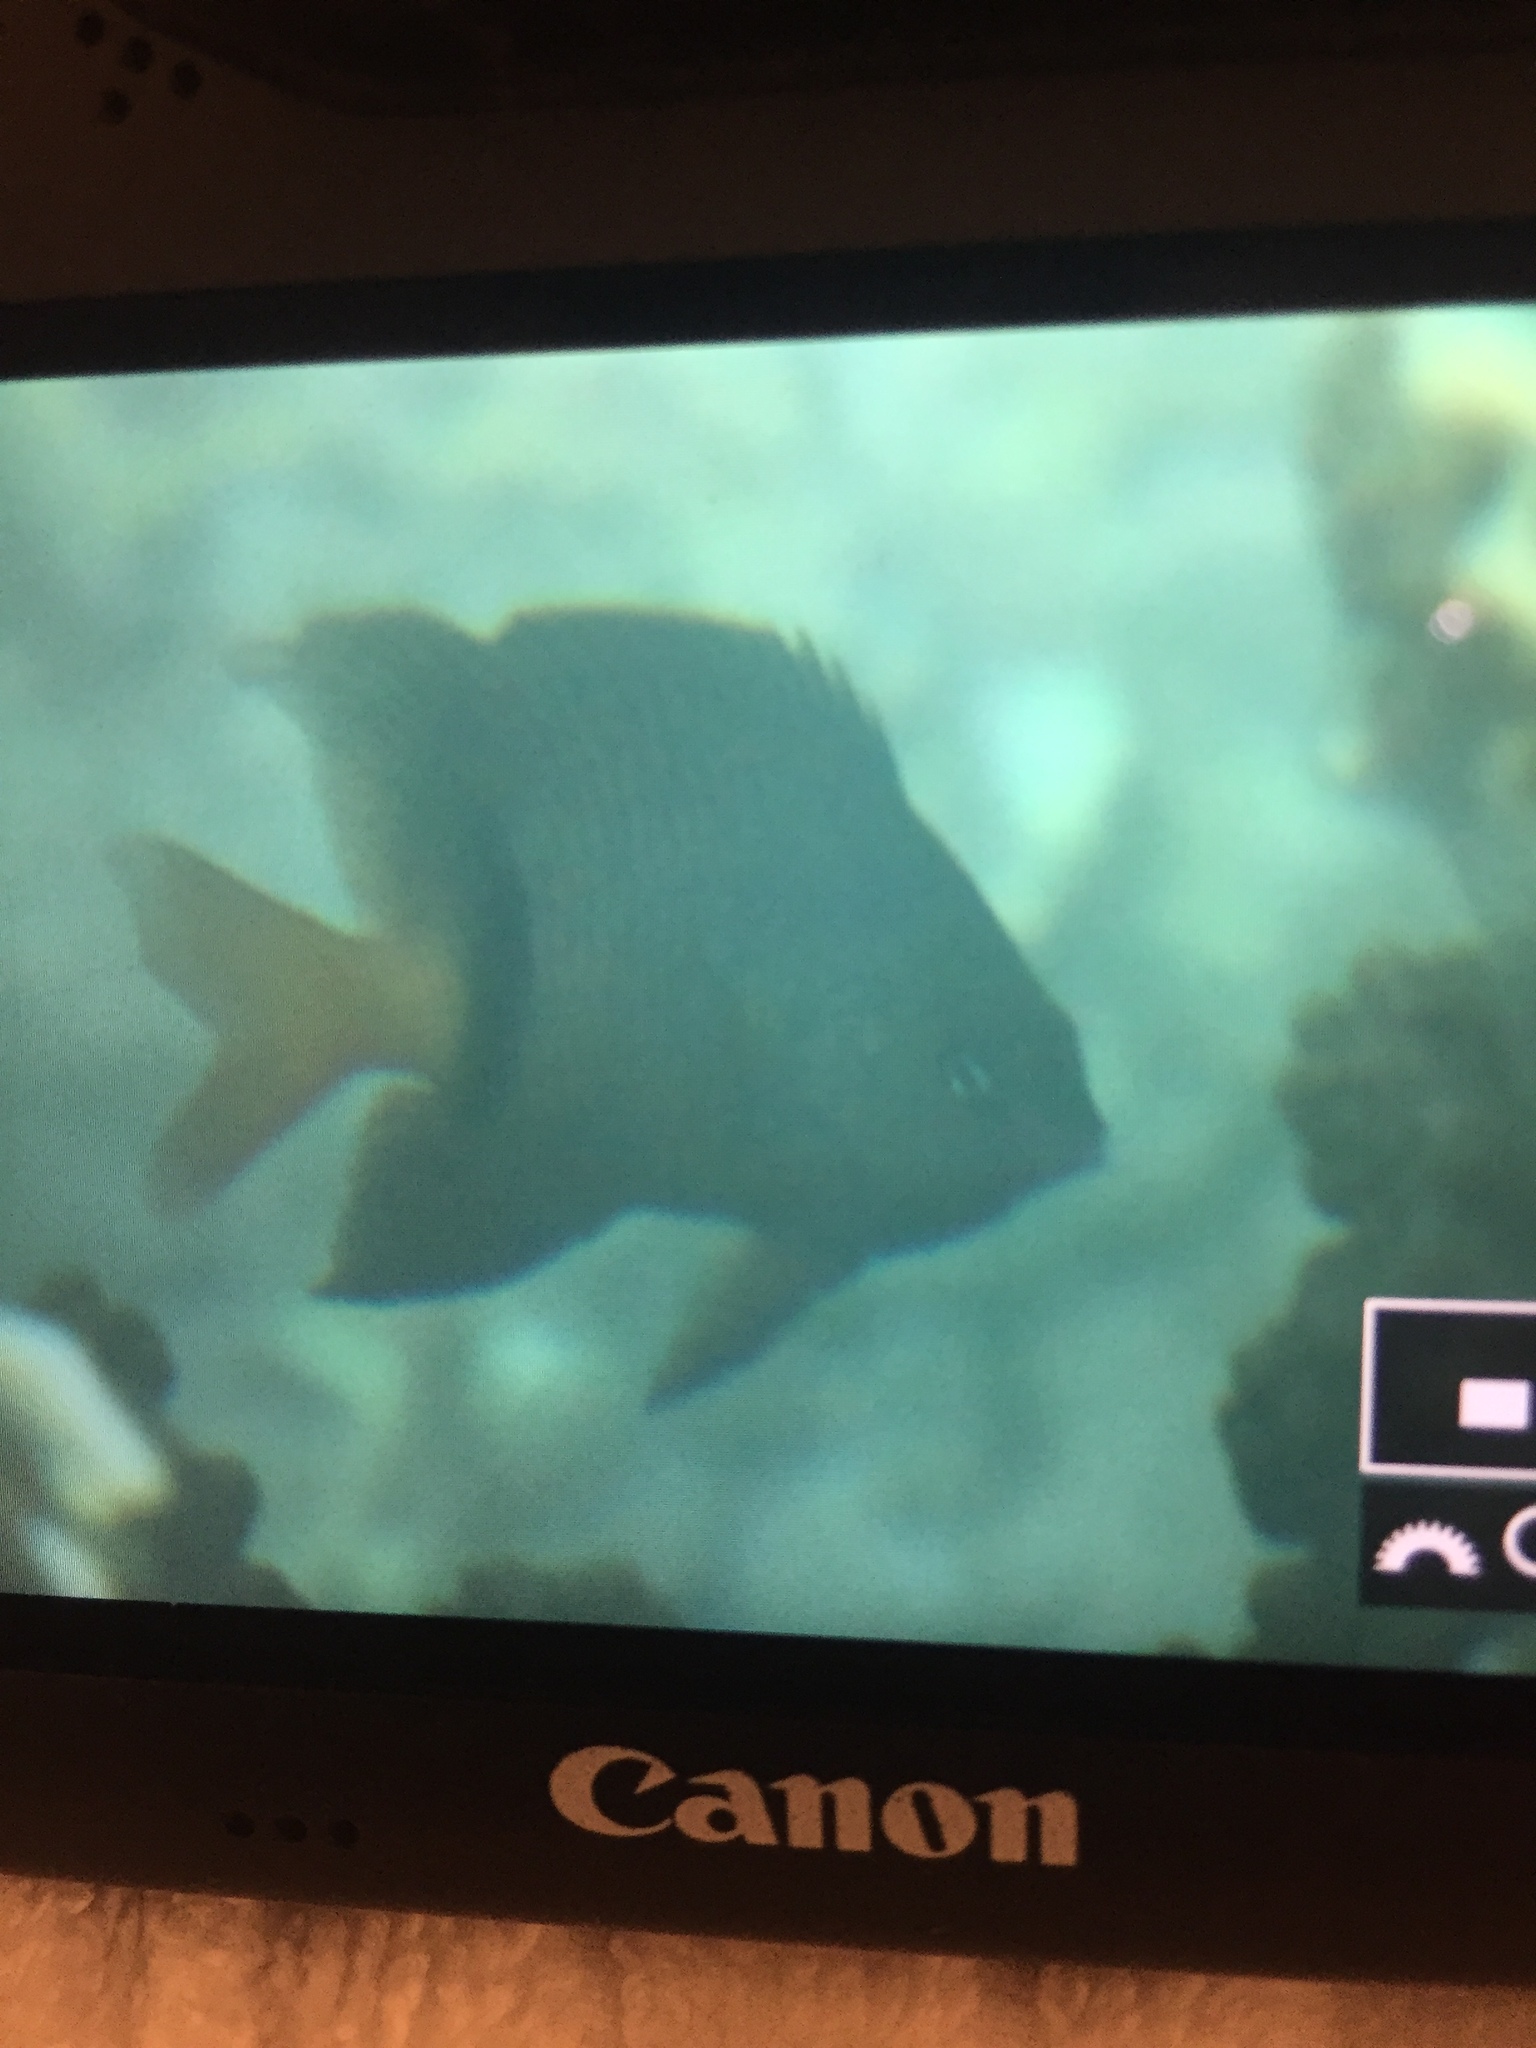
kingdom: Animalia
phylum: Chordata
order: Perciformes
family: Pomacentridae
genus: Plectroglyphidodon
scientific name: Plectroglyphidodon dickii
